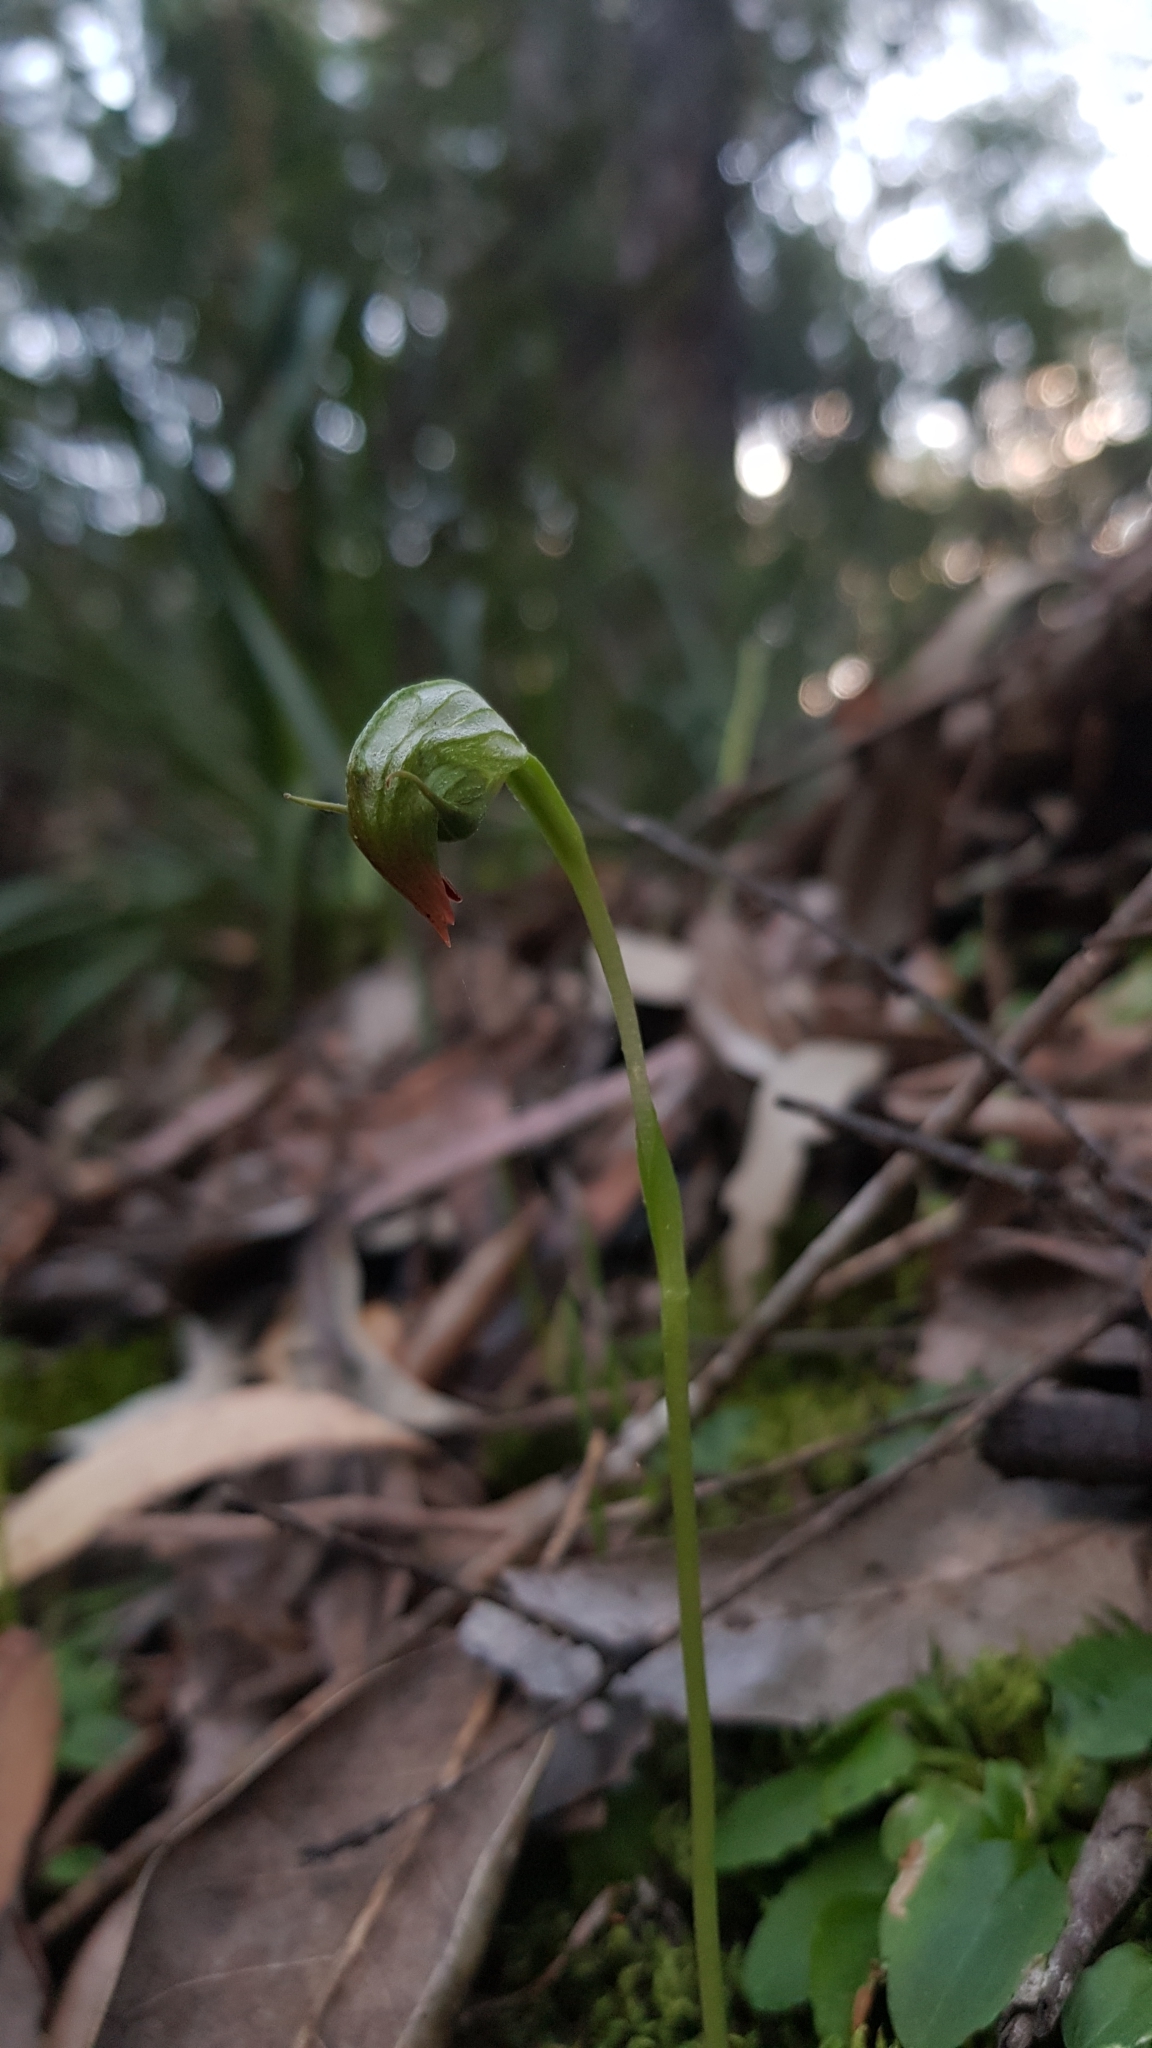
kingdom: Plantae
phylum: Tracheophyta
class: Liliopsida
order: Asparagales
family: Orchidaceae
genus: Pterostylis
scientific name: Pterostylis nutans
